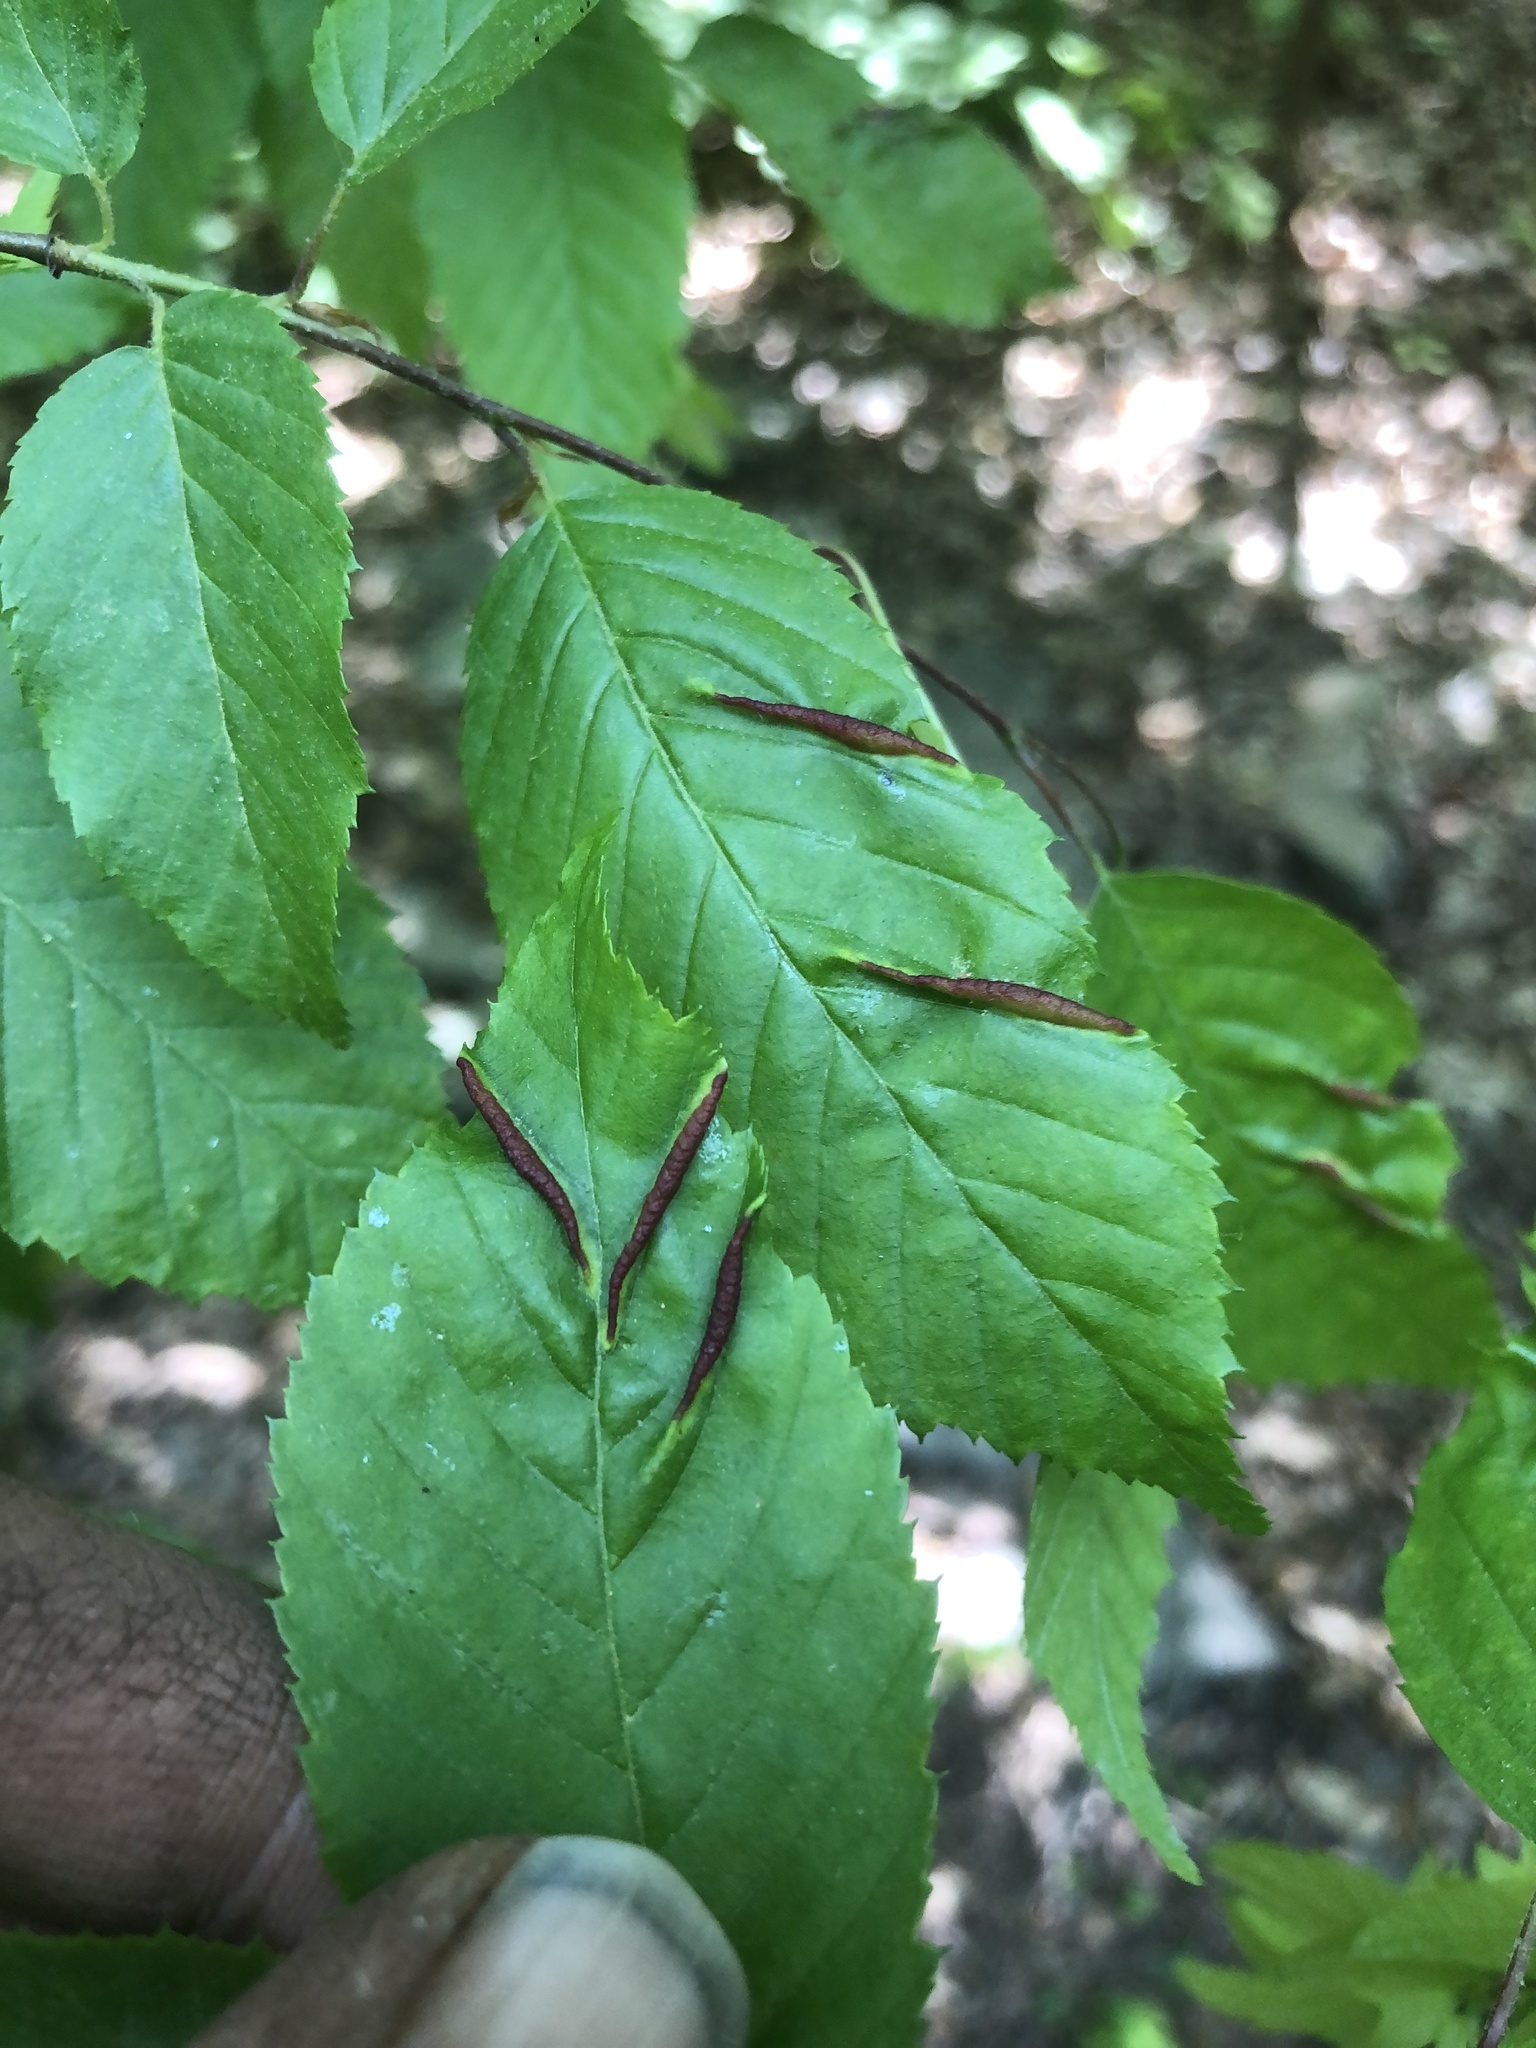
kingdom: Animalia
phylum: Arthropoda
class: Insecta
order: Diptera
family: Cecidomyiidae
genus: Dasineura
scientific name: Dasineura pudibunda
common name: Hornbeam leaf gall midge
